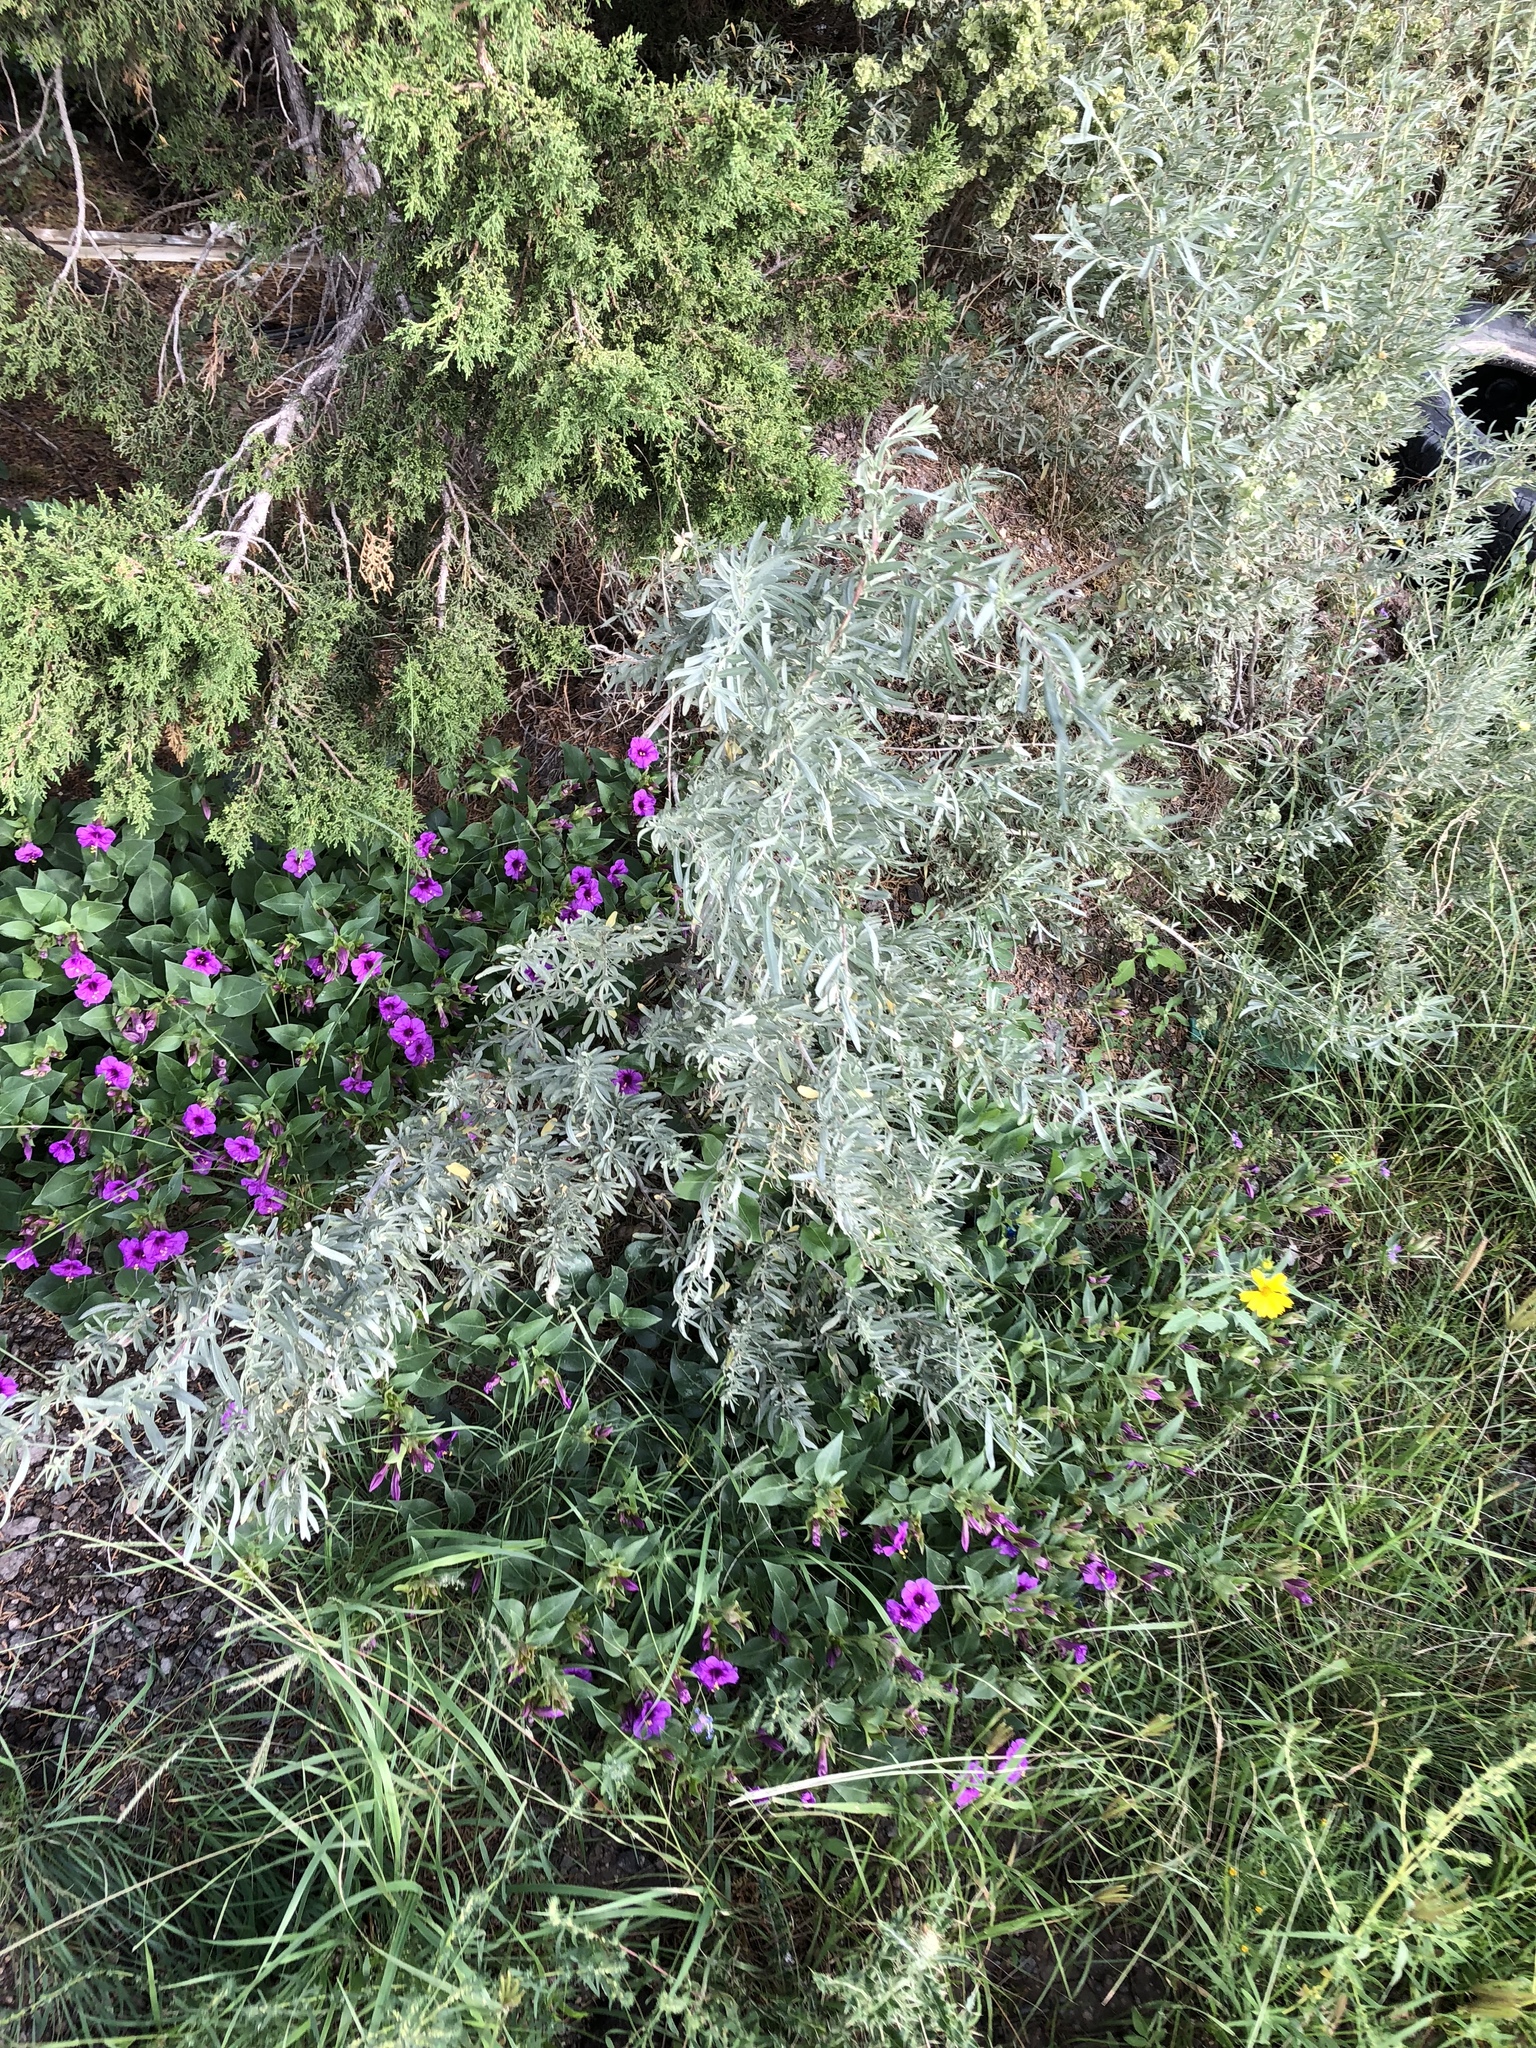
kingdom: Plantae
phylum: Tracheophyta
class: Magnoliopsida
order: Caryophyllales
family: Amaranthaceae
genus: Atriplex
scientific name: Atriplex canescens
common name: Four-wing saltbush
